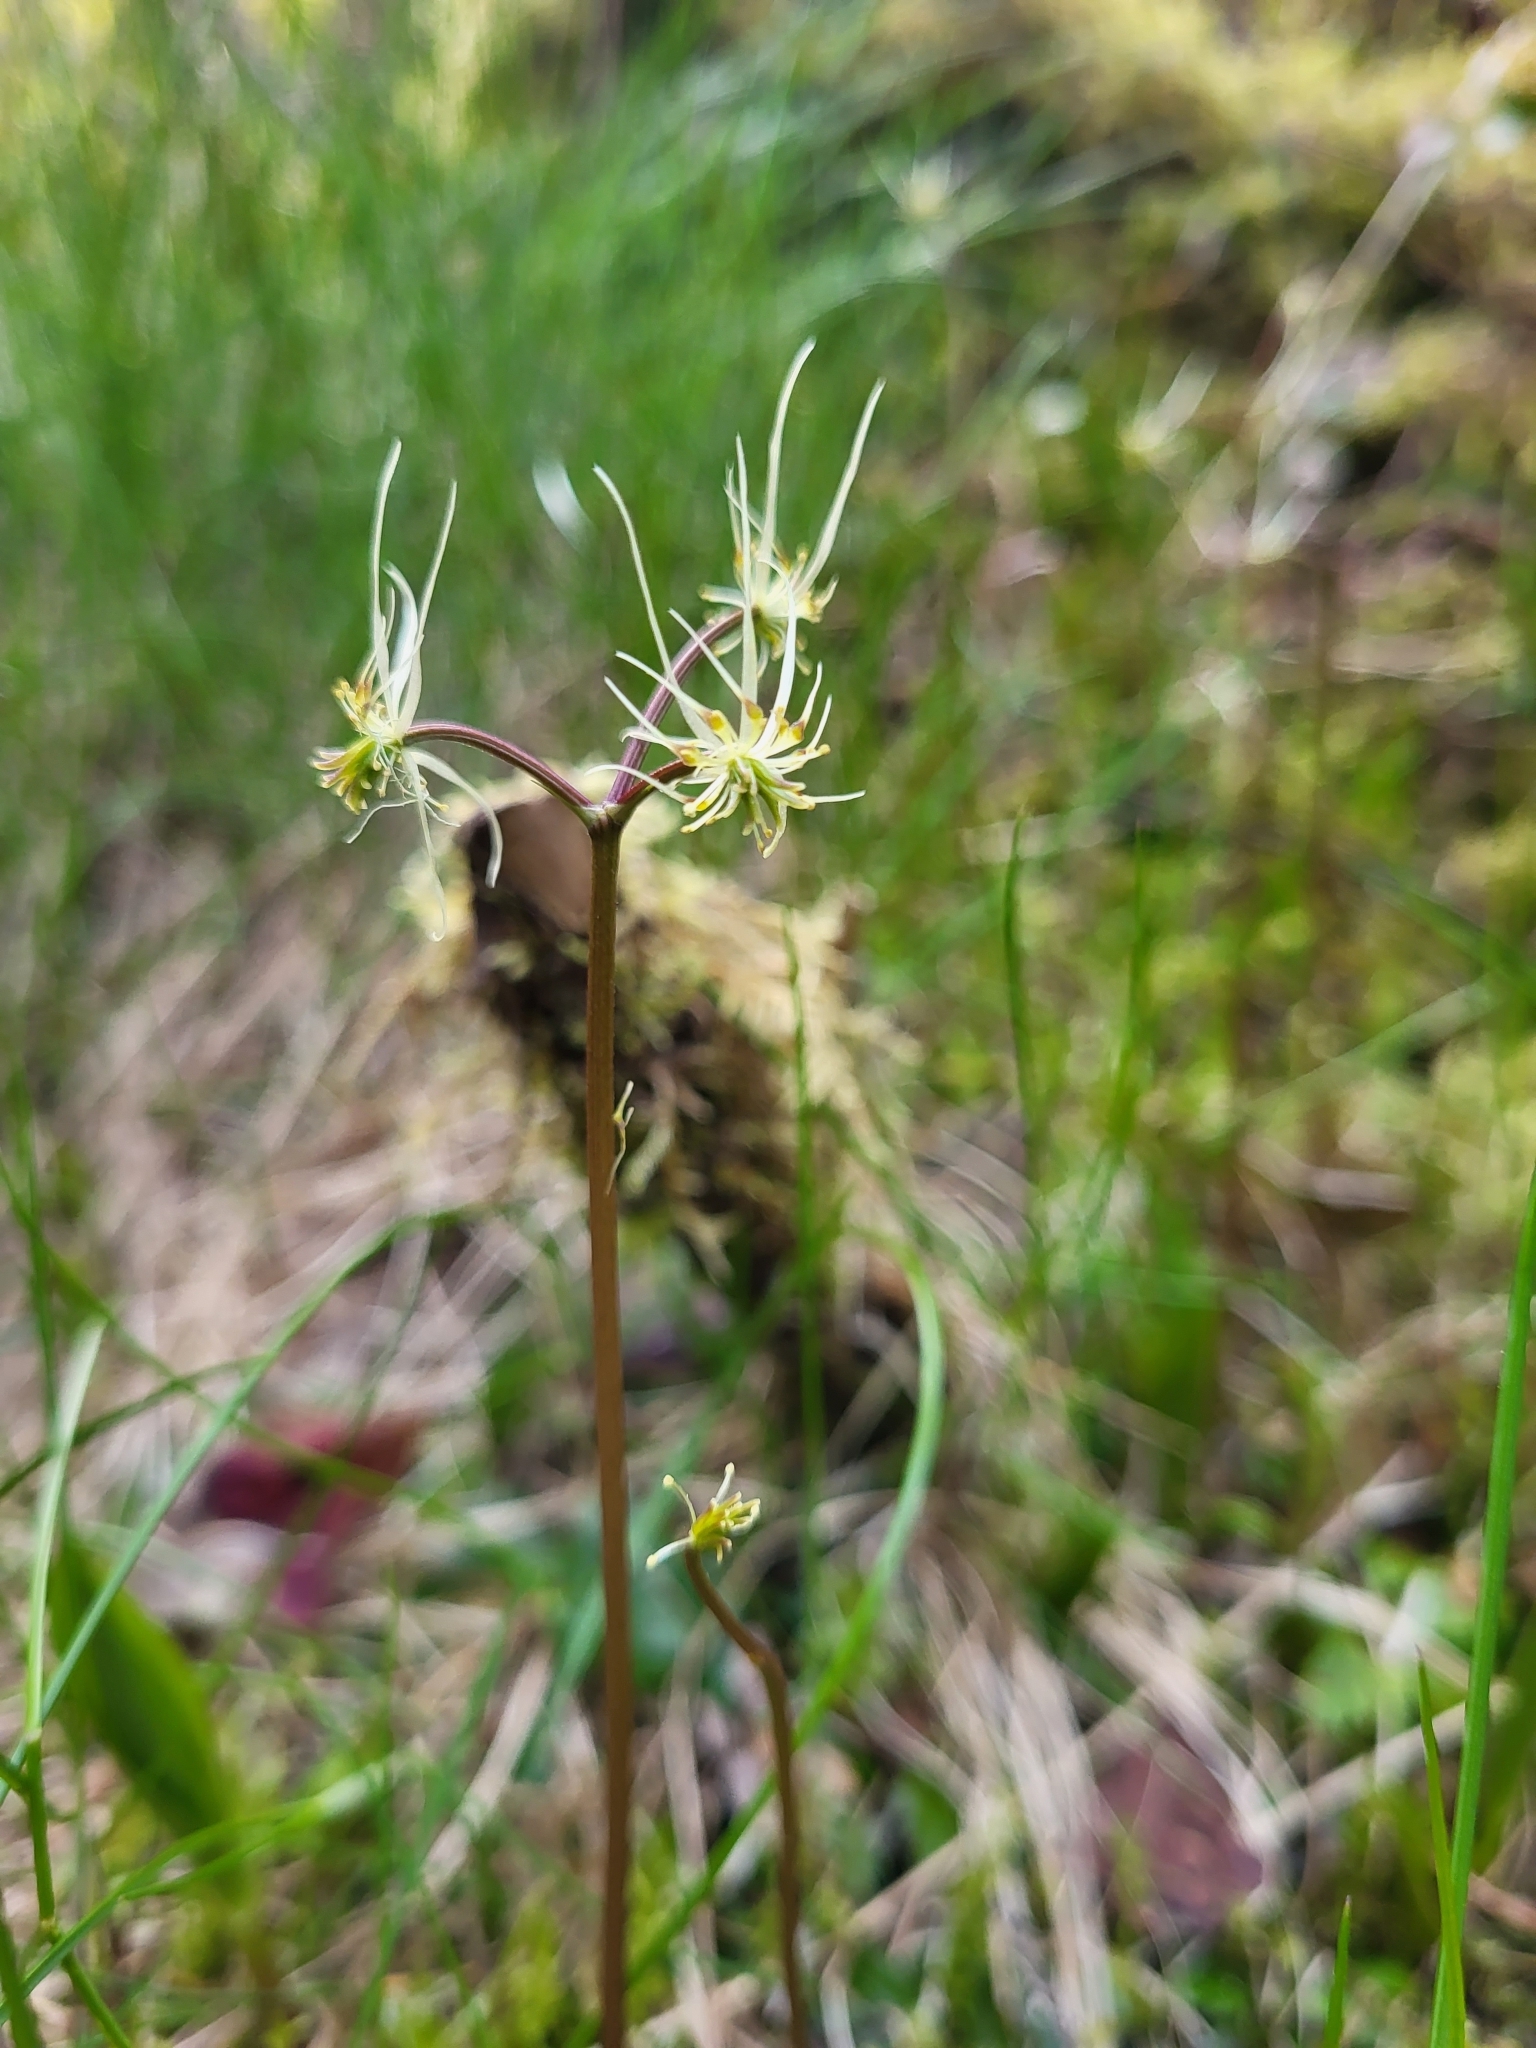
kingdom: Plantae
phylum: Tracheophyta
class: Magnoliopsida
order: Ranunculales
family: Ranunculaceae
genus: Coptis
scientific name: Coptis aspleniifolia
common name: Fern-leaved goldthread
